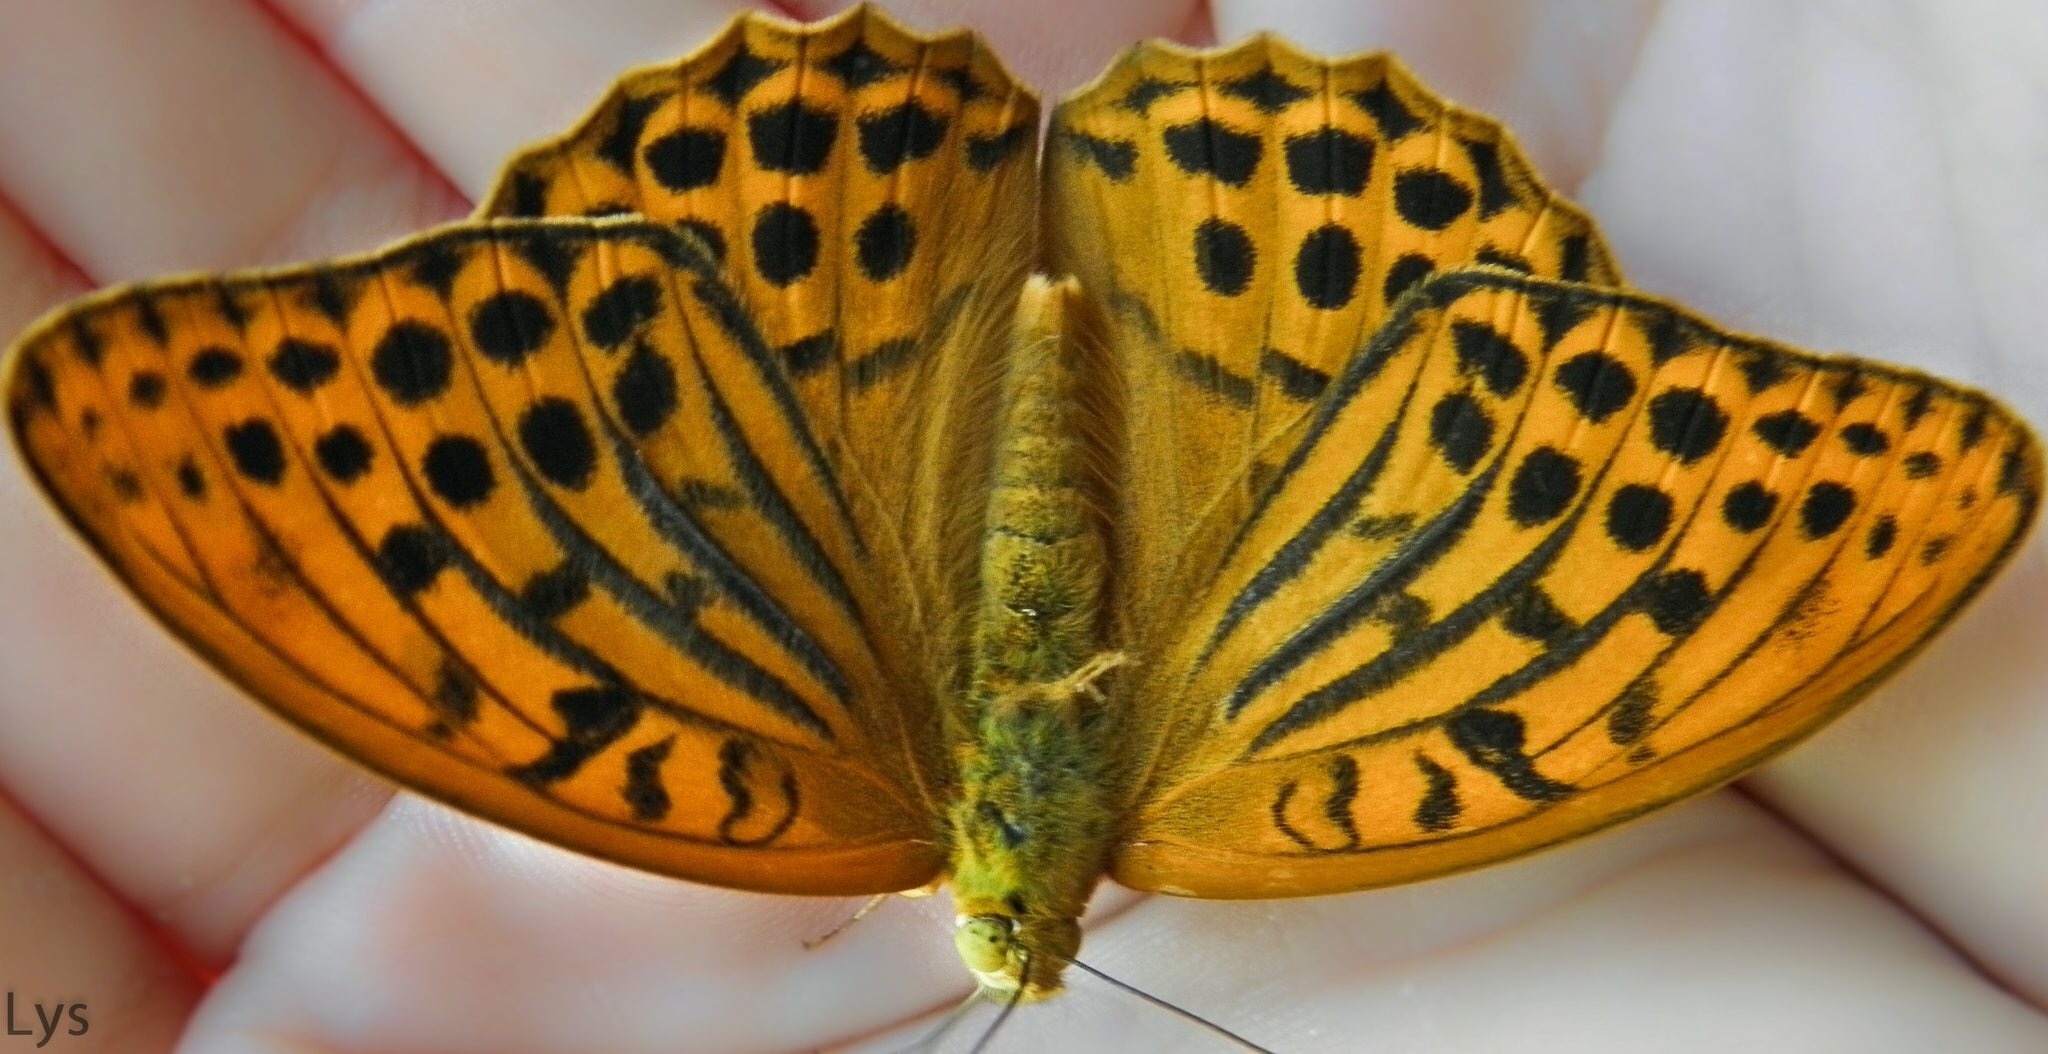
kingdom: Animalia
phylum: Arthropoda
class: Insecta
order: Lepidoptera
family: Nymphalidae
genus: Argynnis
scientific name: Argynnis paphia
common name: Silver-washed fritillary
